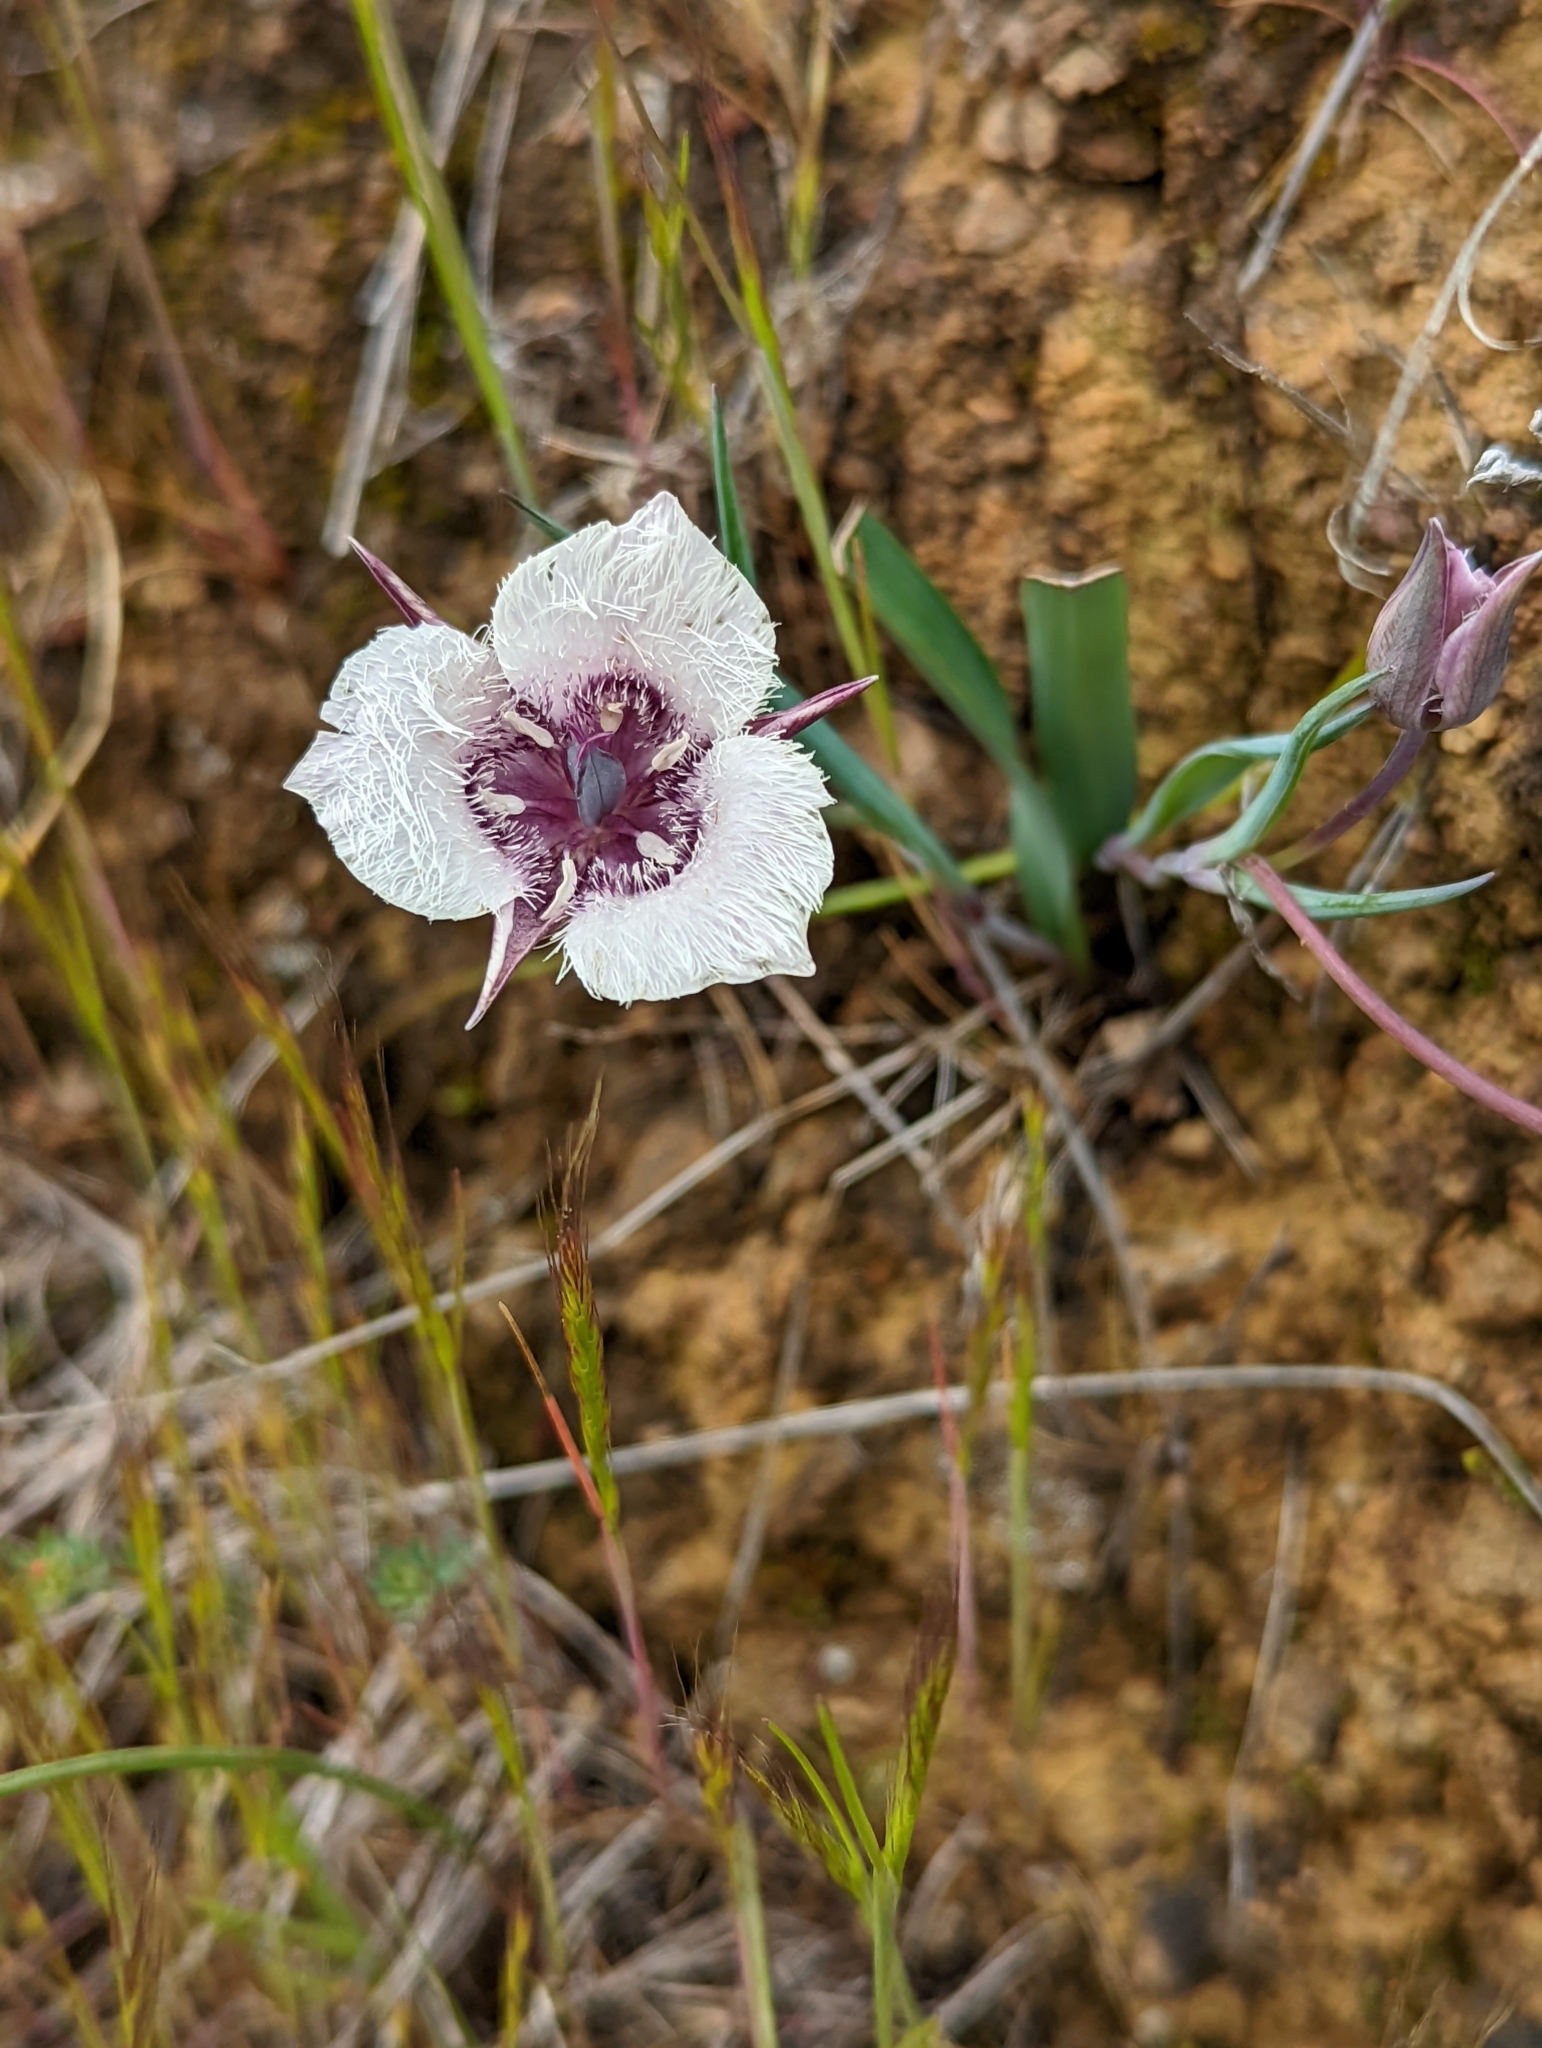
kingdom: Plantae
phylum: Tracheophyta
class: Liliopsida
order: Liliales
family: Liliaceae
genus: Calochortus
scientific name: Calochortus tolmiei
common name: Pussy-ears
